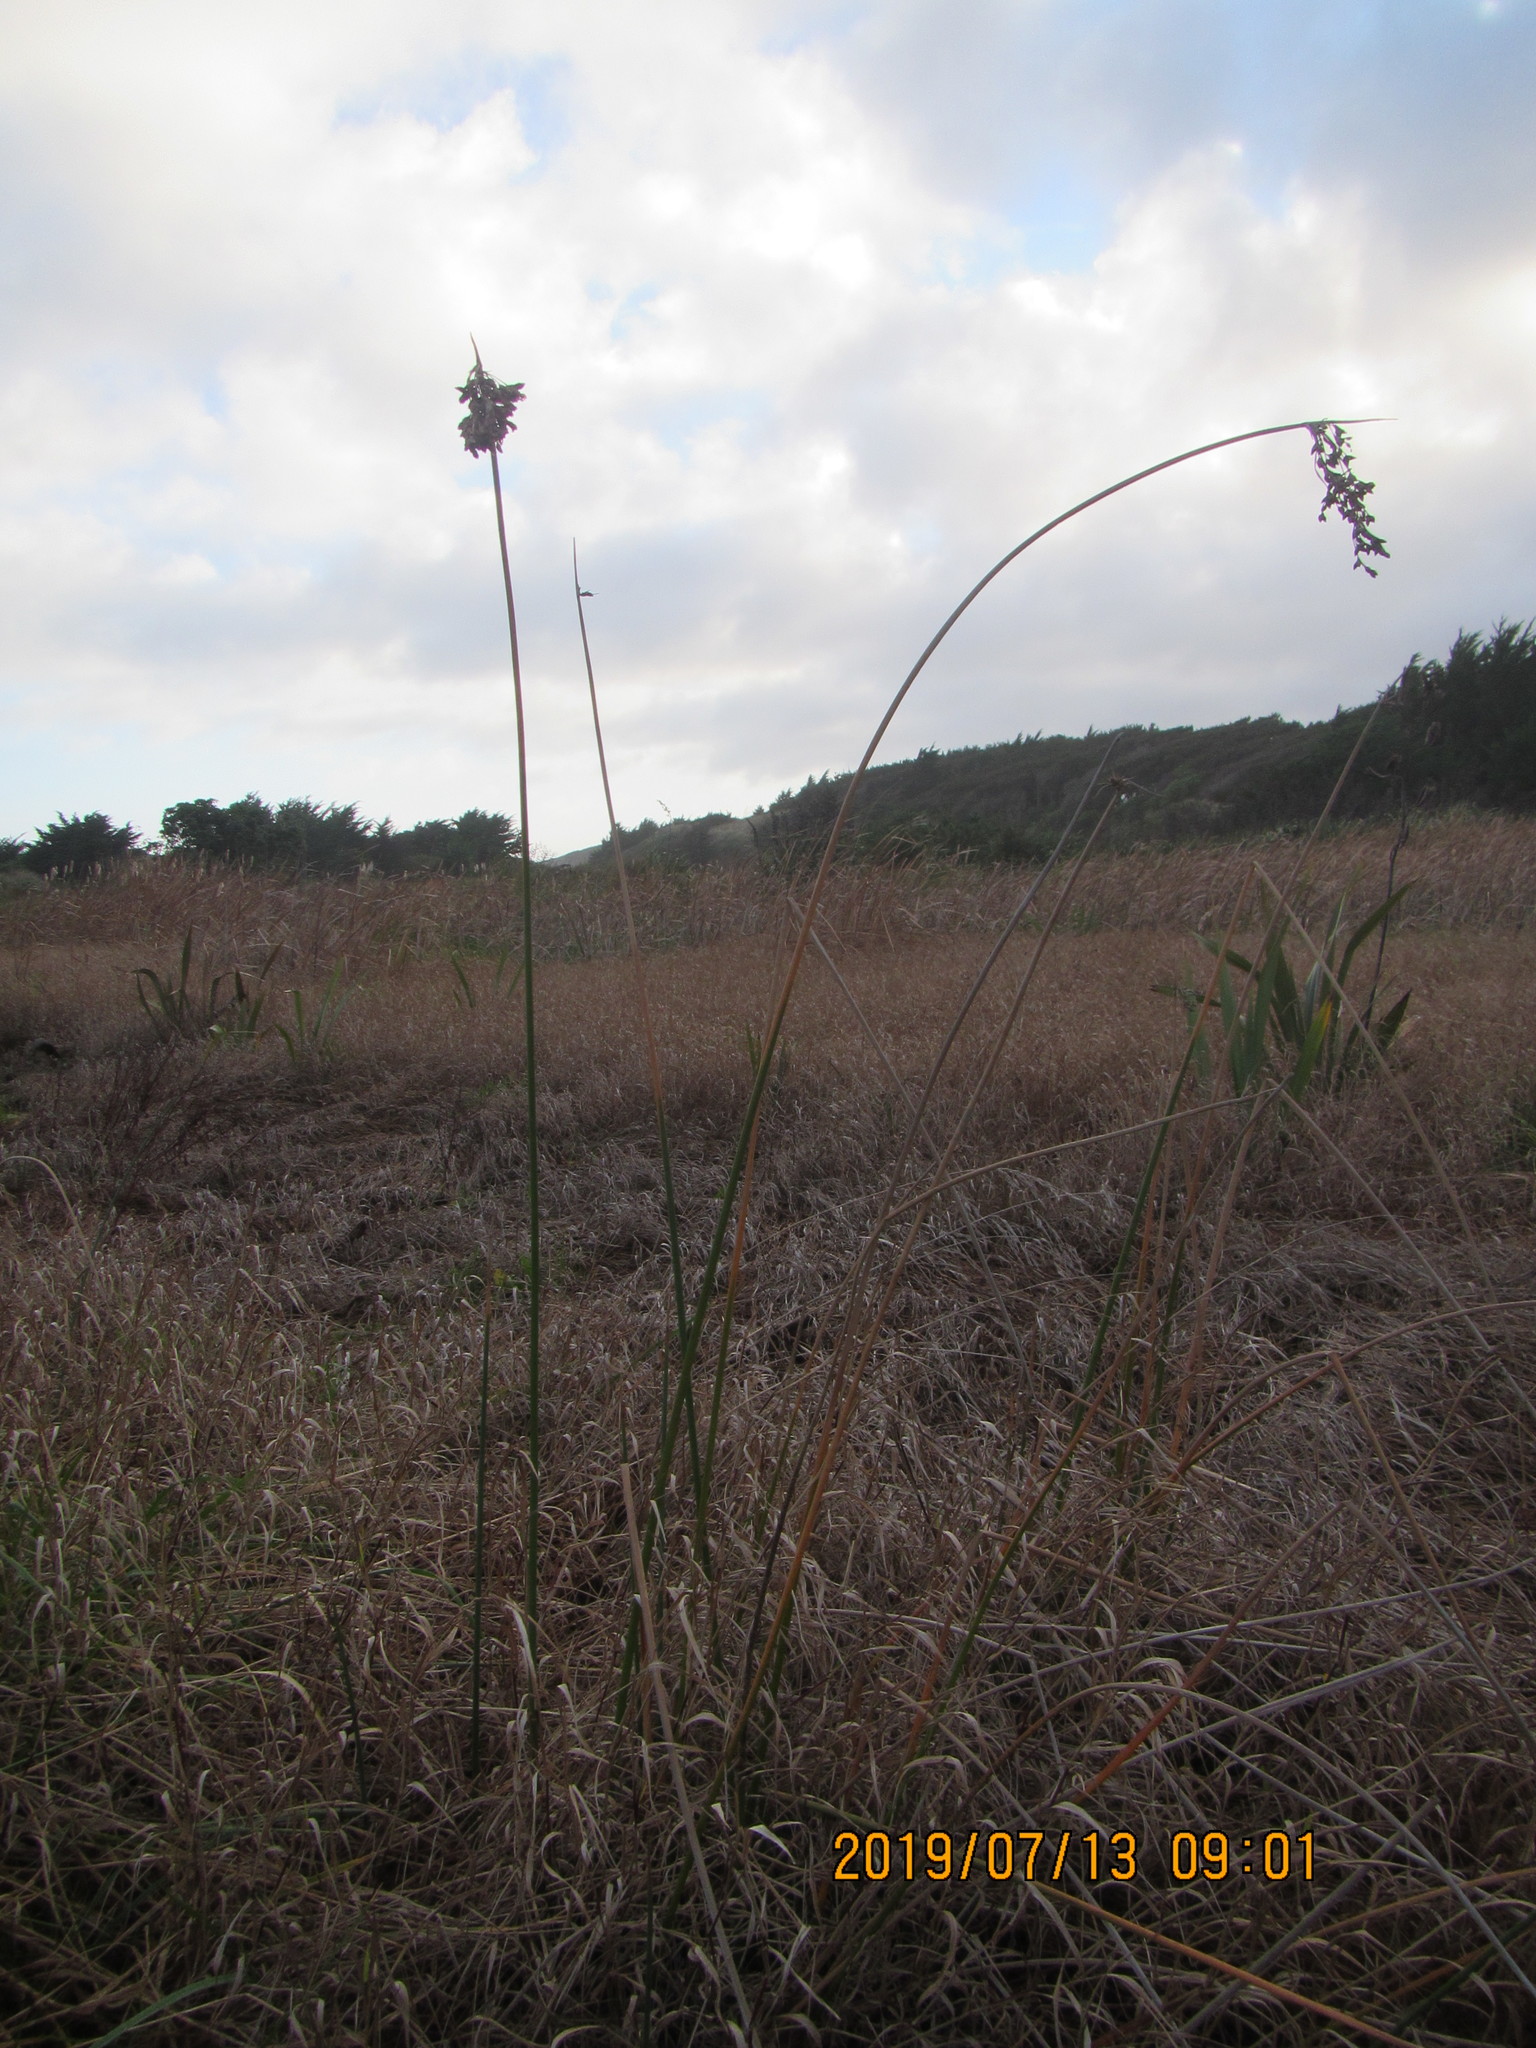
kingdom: Plantae
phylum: Tracheophyta
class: Liliopsida
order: Poales
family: Cyperaceae
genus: Schoenoplectus
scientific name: Schoenoplectus tabernaemontani
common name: Grey club-rush
